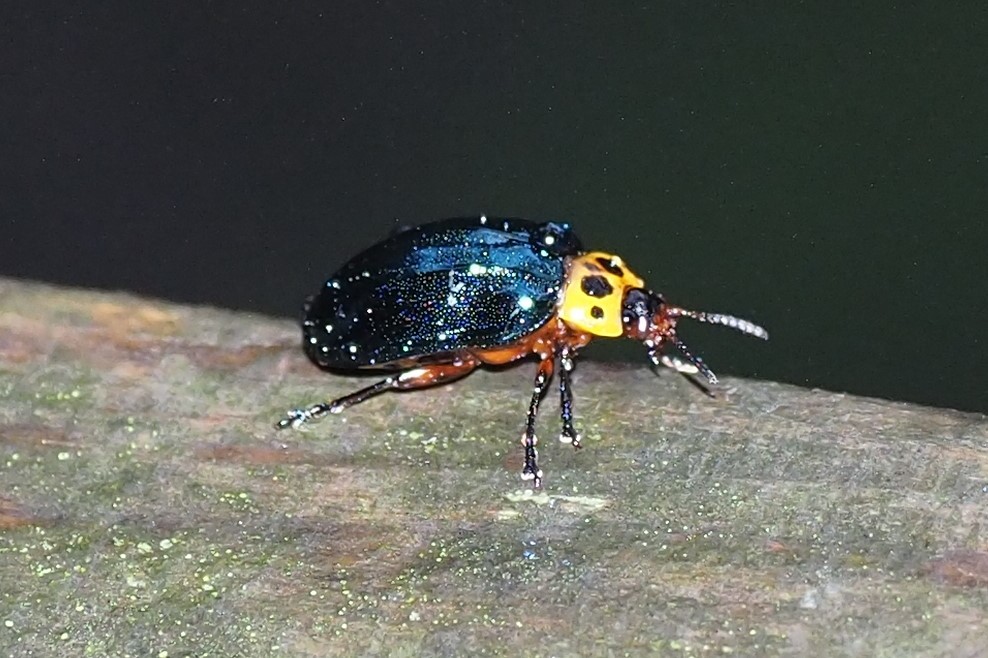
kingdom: Animalia
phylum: Arthropoda
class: Insecta
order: Coleoptera
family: Chrysomelidae
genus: Plagiosterna
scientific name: Plagiosterna maculicollis
